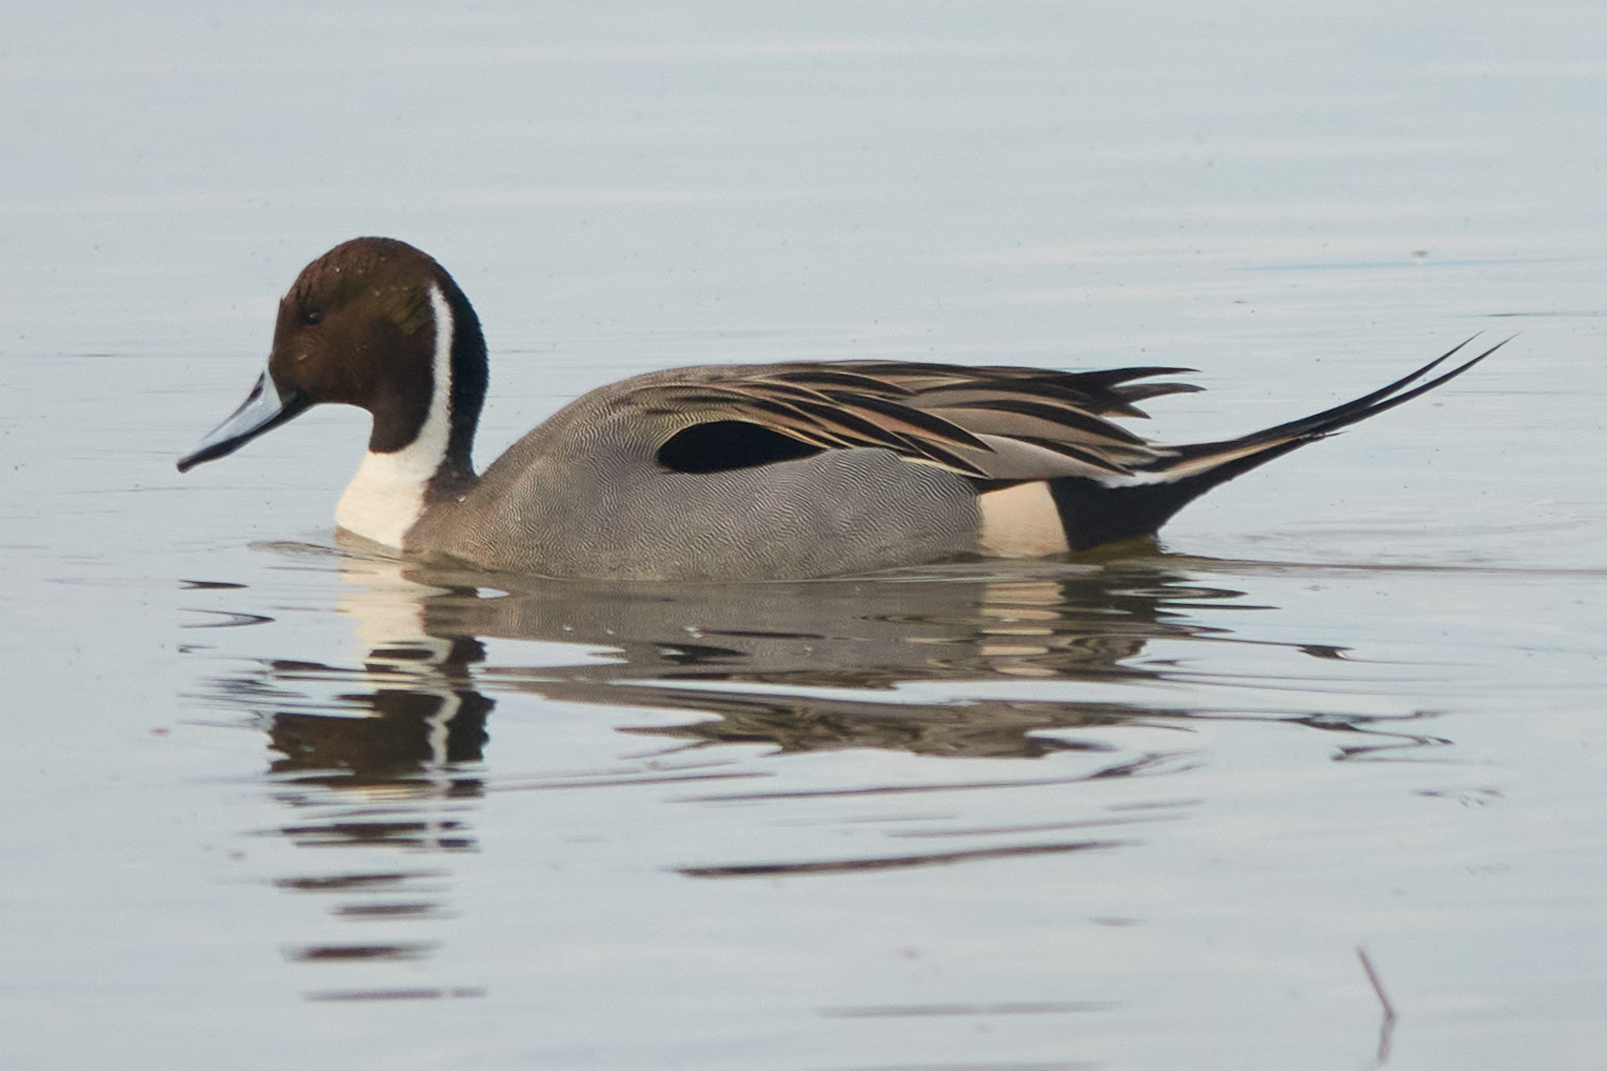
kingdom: Animalia
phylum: Chordata
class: Aves
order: Anseriformes
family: Anatidae
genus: Anas
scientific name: Anas acuta
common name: Northern pintail
